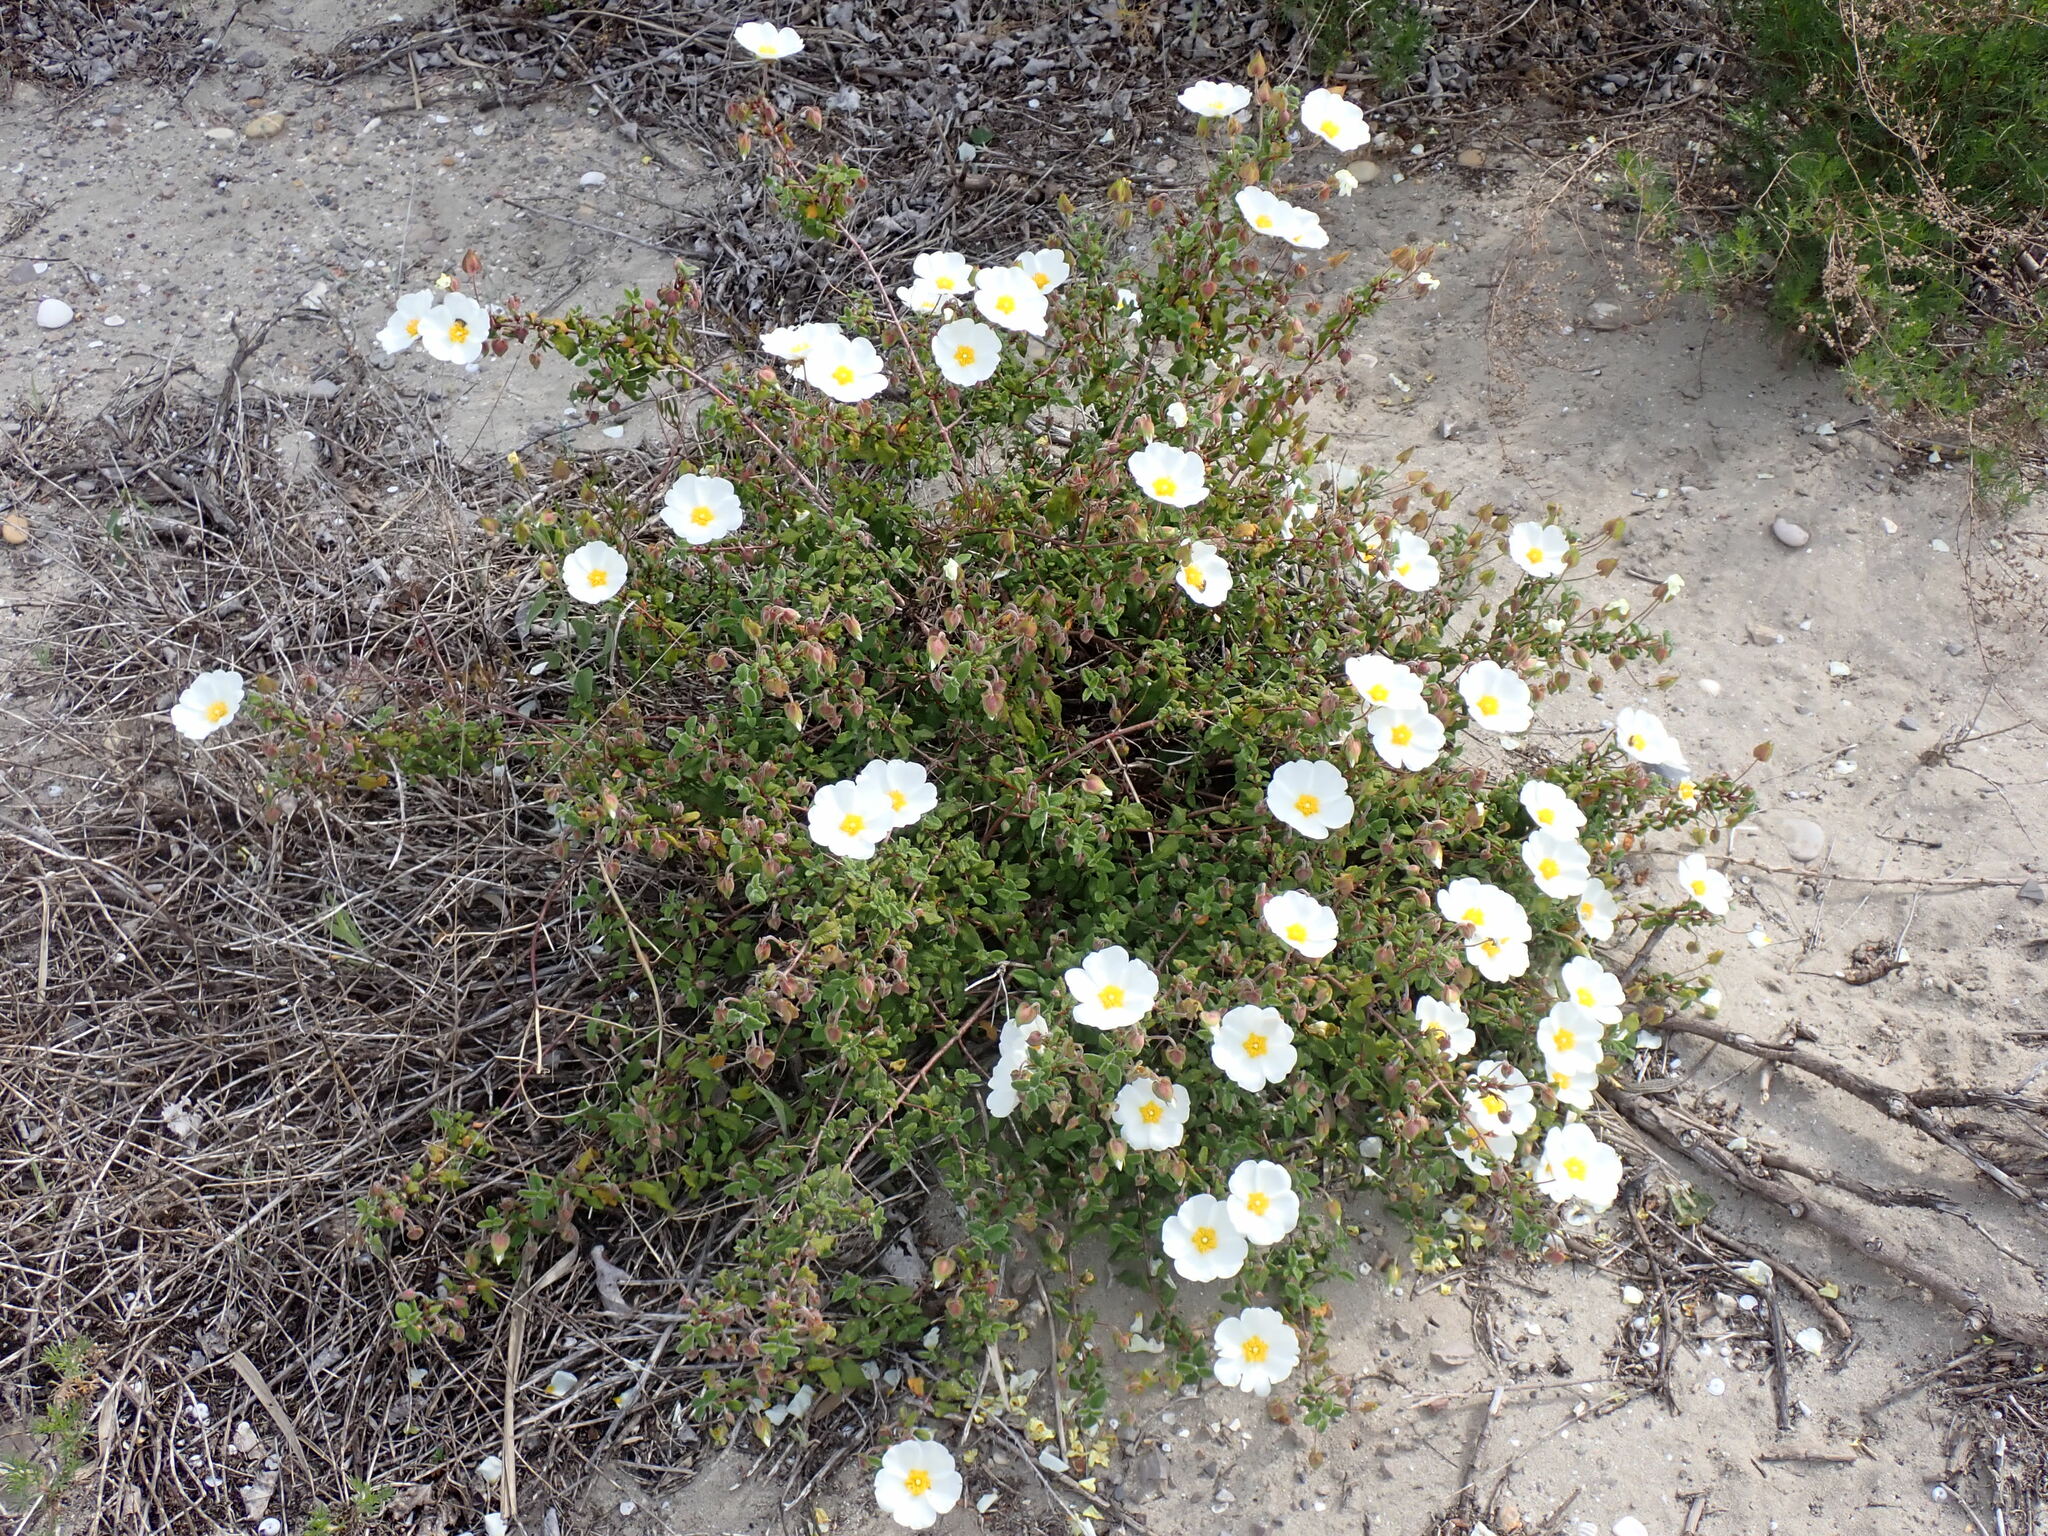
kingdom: Plantae
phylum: Tracheophyta
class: Magnoliopsida
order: Malvales
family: Cistaceae
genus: Cistus
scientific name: Cistus salviifolius
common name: Salvia cistus
